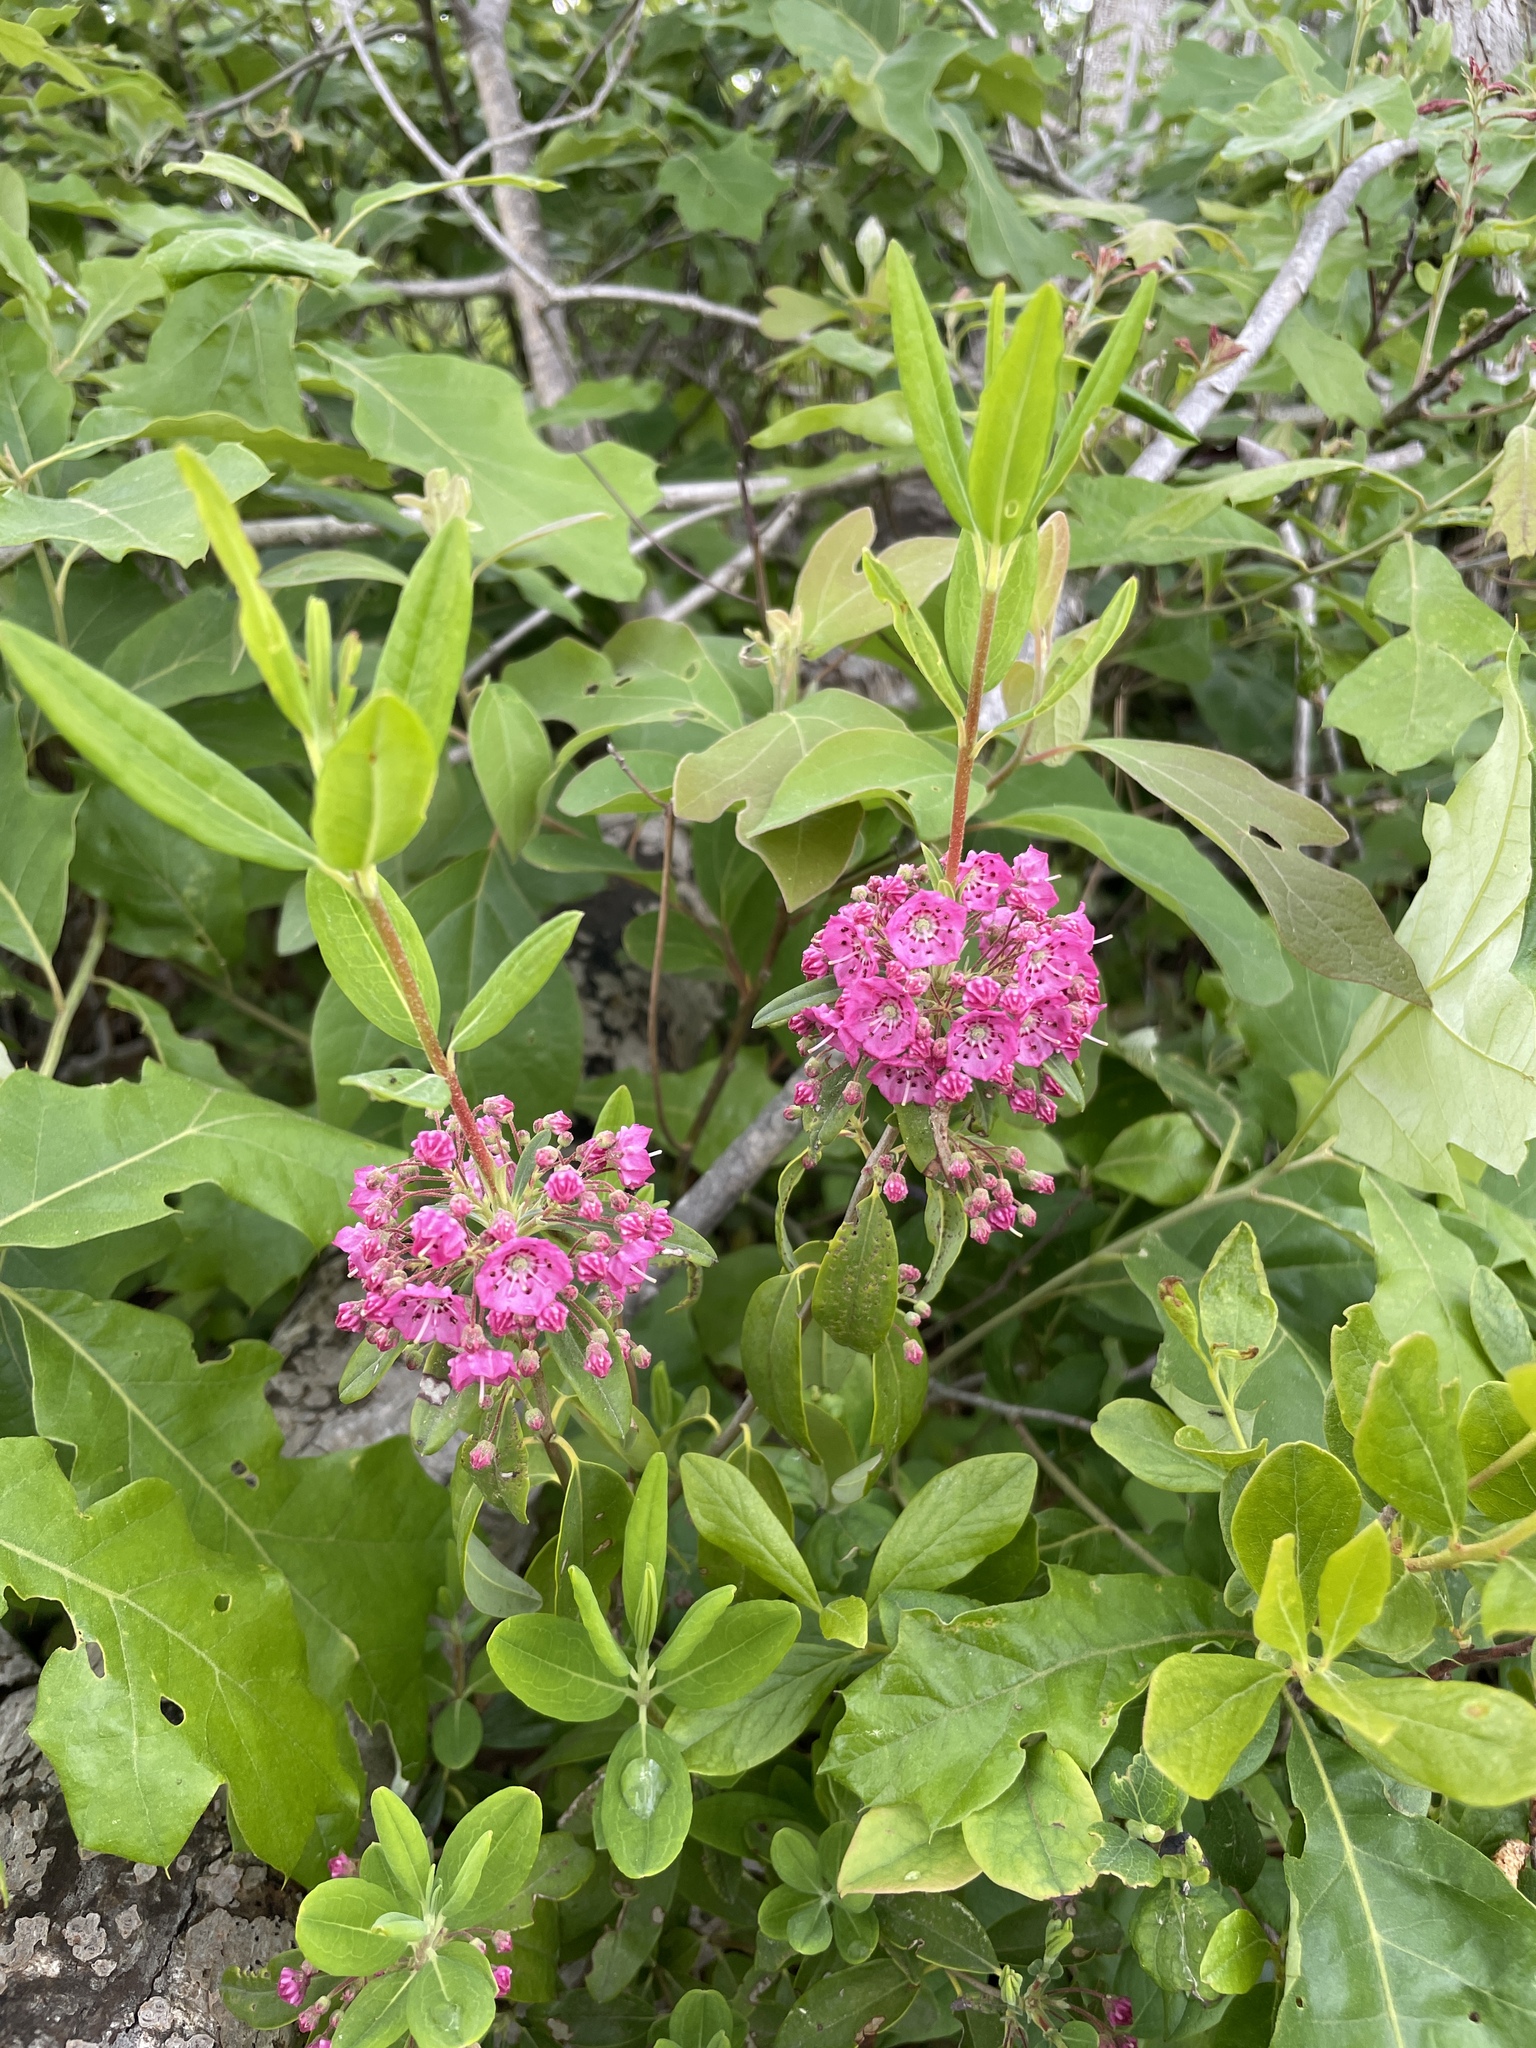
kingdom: Plantae
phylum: Tracheophyta
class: Magnoliopsida
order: Ericales
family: Ericaceae
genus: Kalmia
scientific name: Kalmia angustifolia
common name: Sheep-laurel
